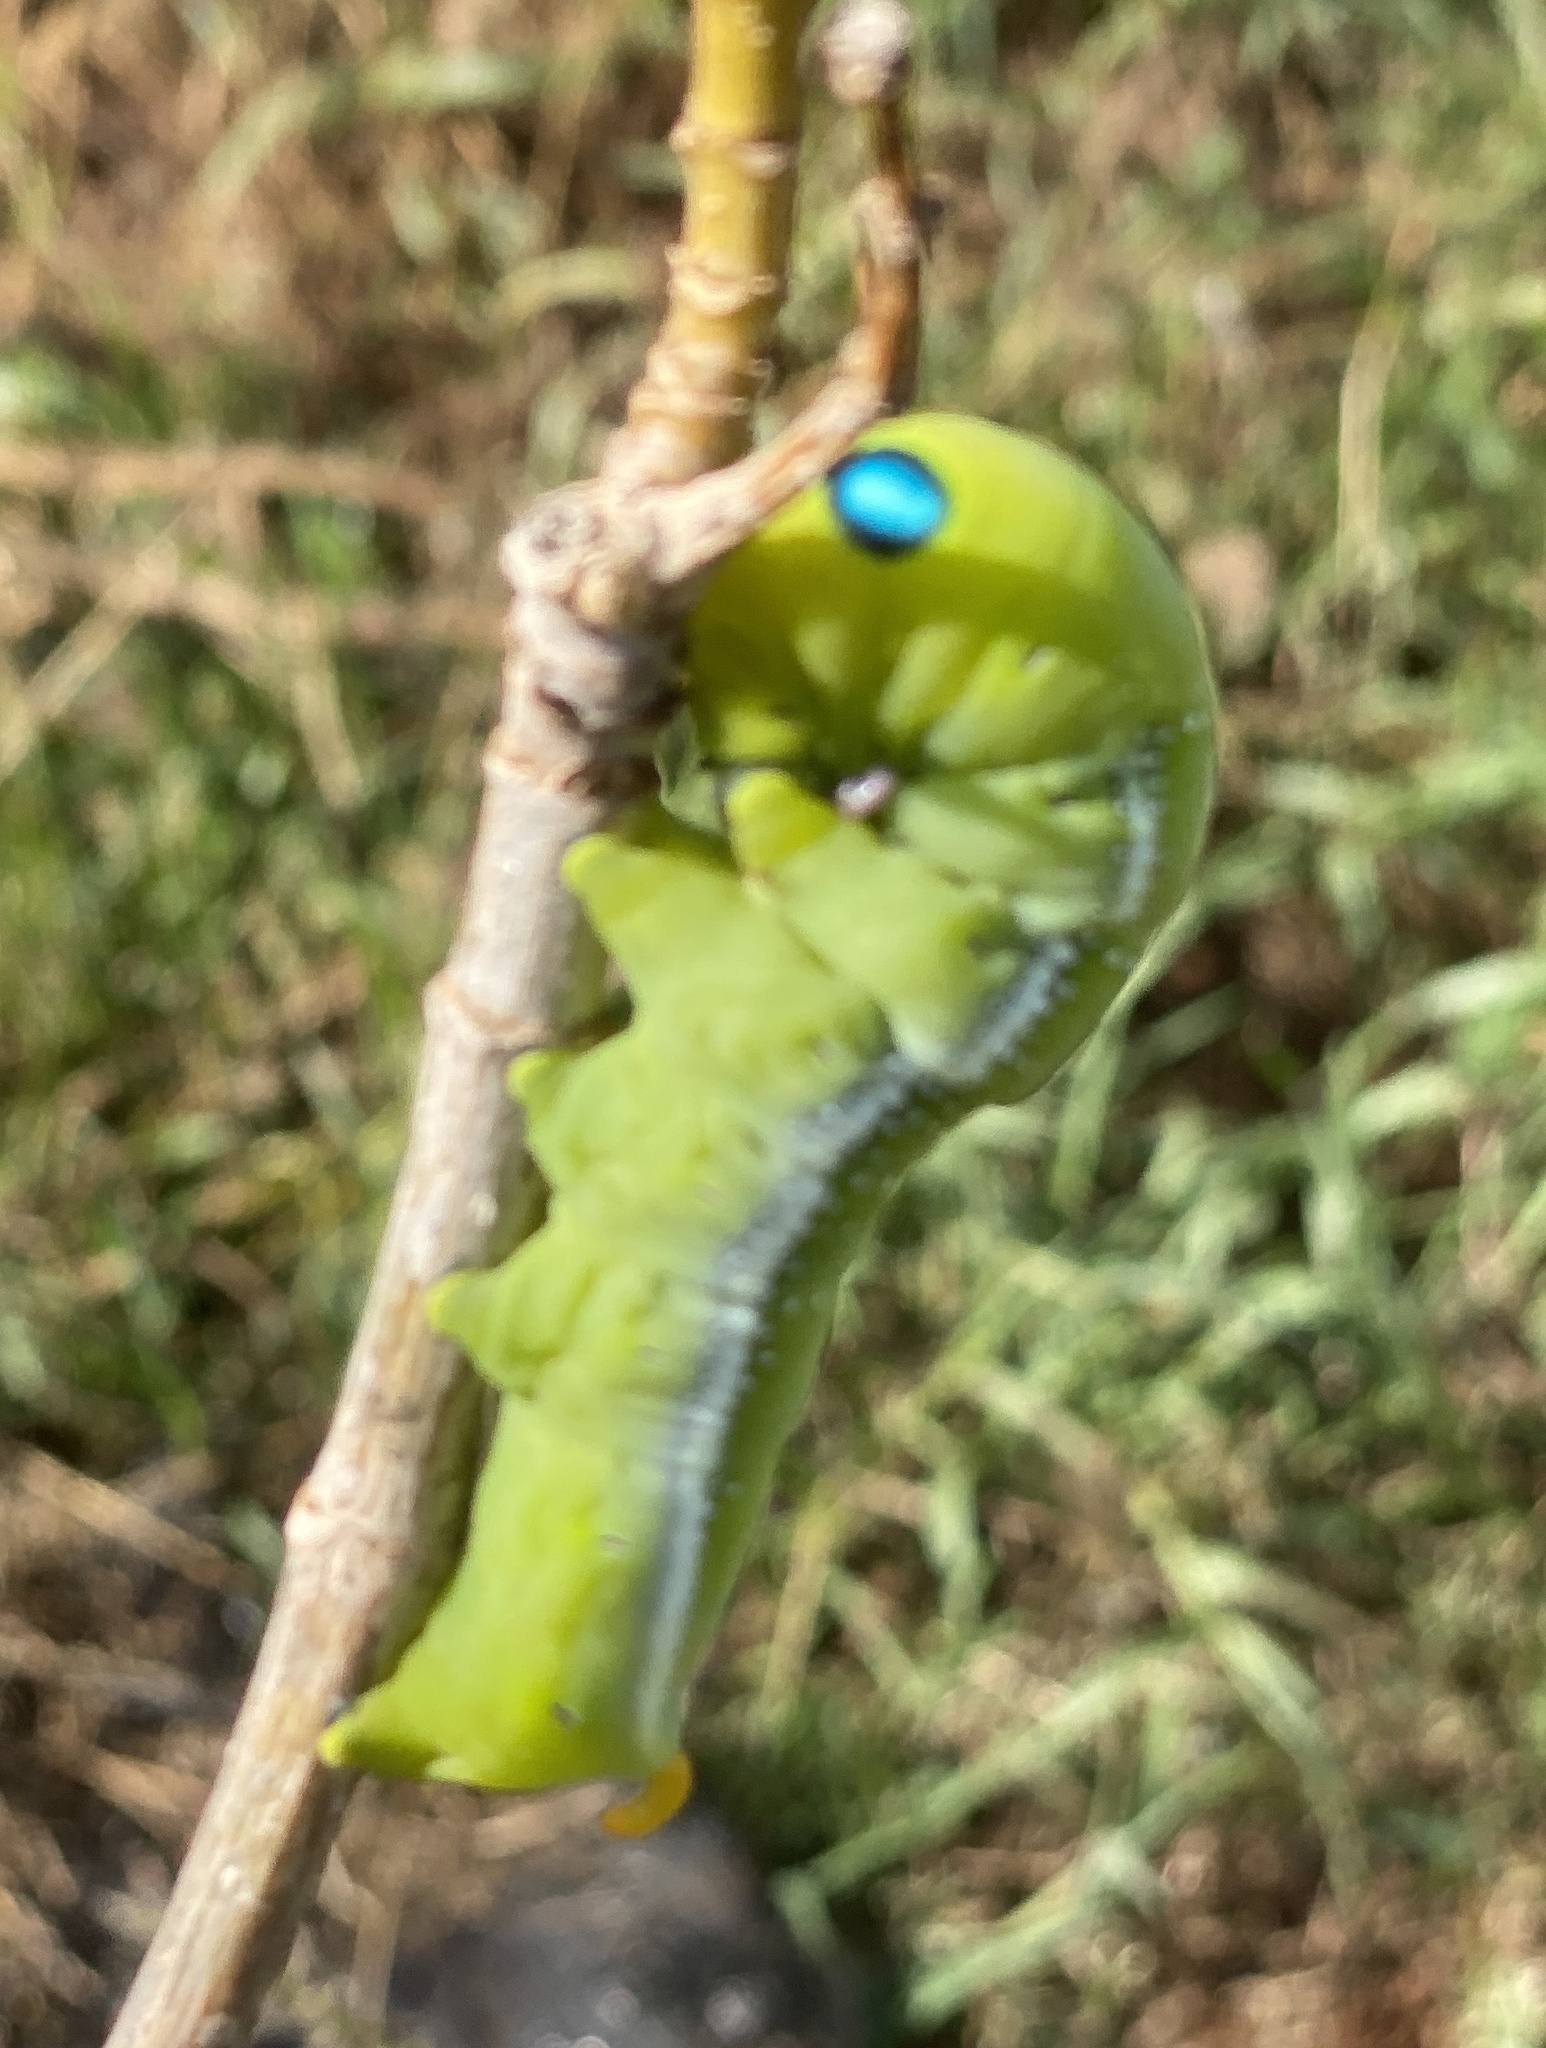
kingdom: Animalia
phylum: Arthropoda
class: Insecta
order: Lepidoptera
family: Sphingidae
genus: Daphnis
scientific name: Daphnis nerii
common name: Oleander hawk-moth
